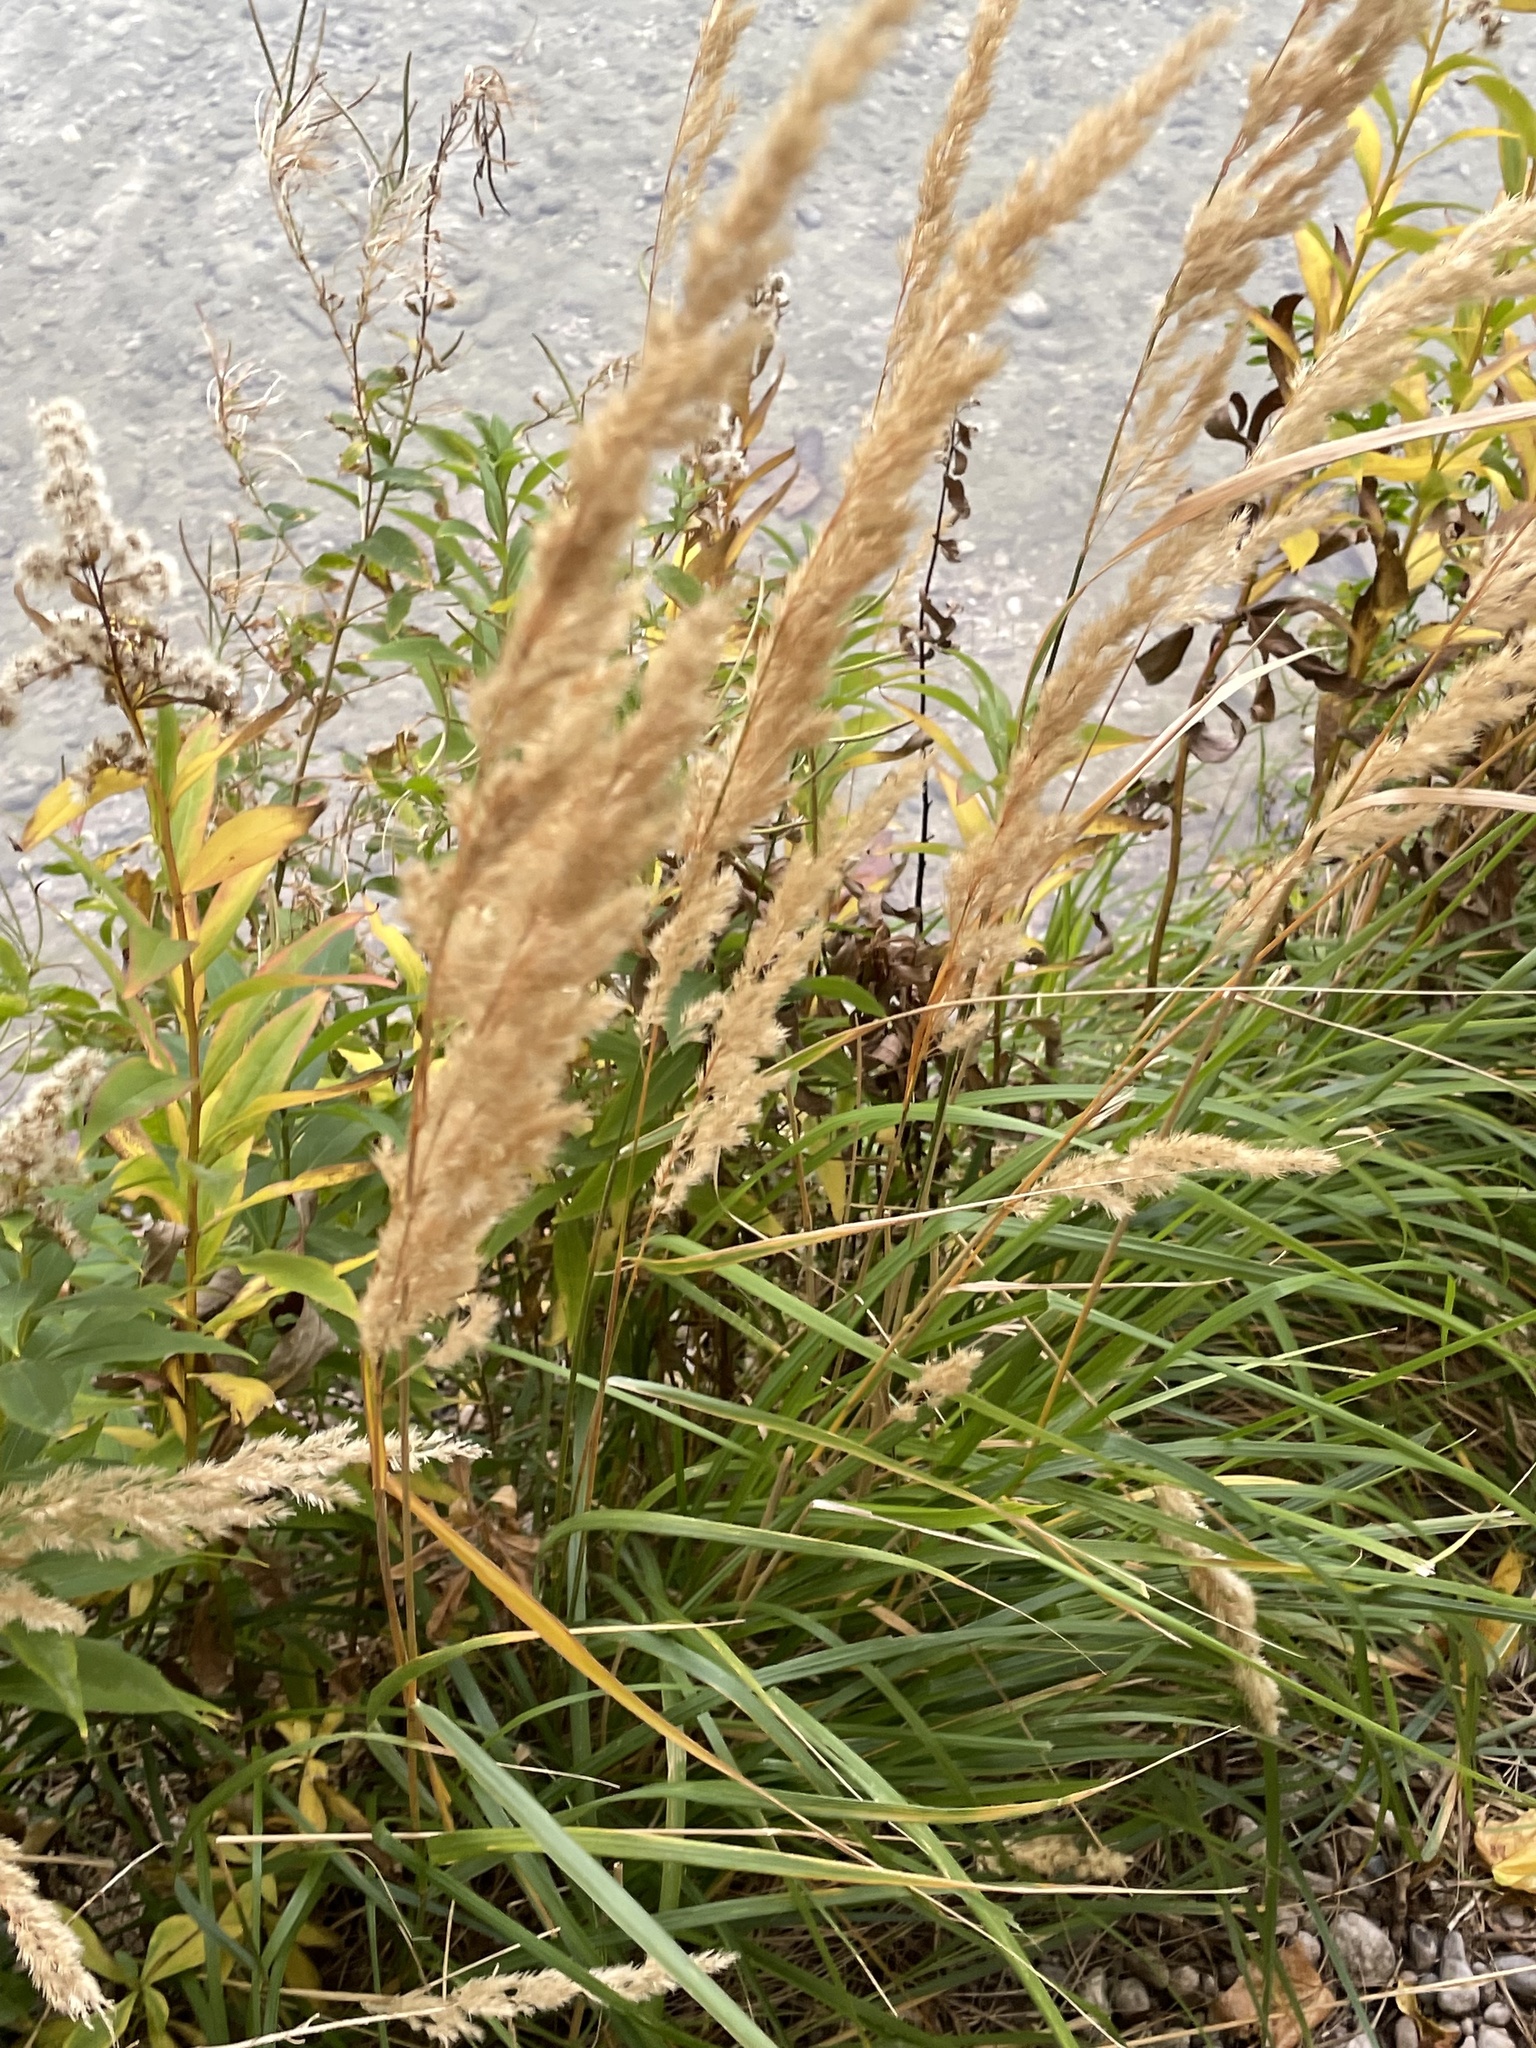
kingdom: Plantae
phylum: Tracheophyta
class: Liliopsida
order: Poales
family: Poaceae
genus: Calamagrostis
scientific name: Calamagrostis epigejos
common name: Wood small-reed
